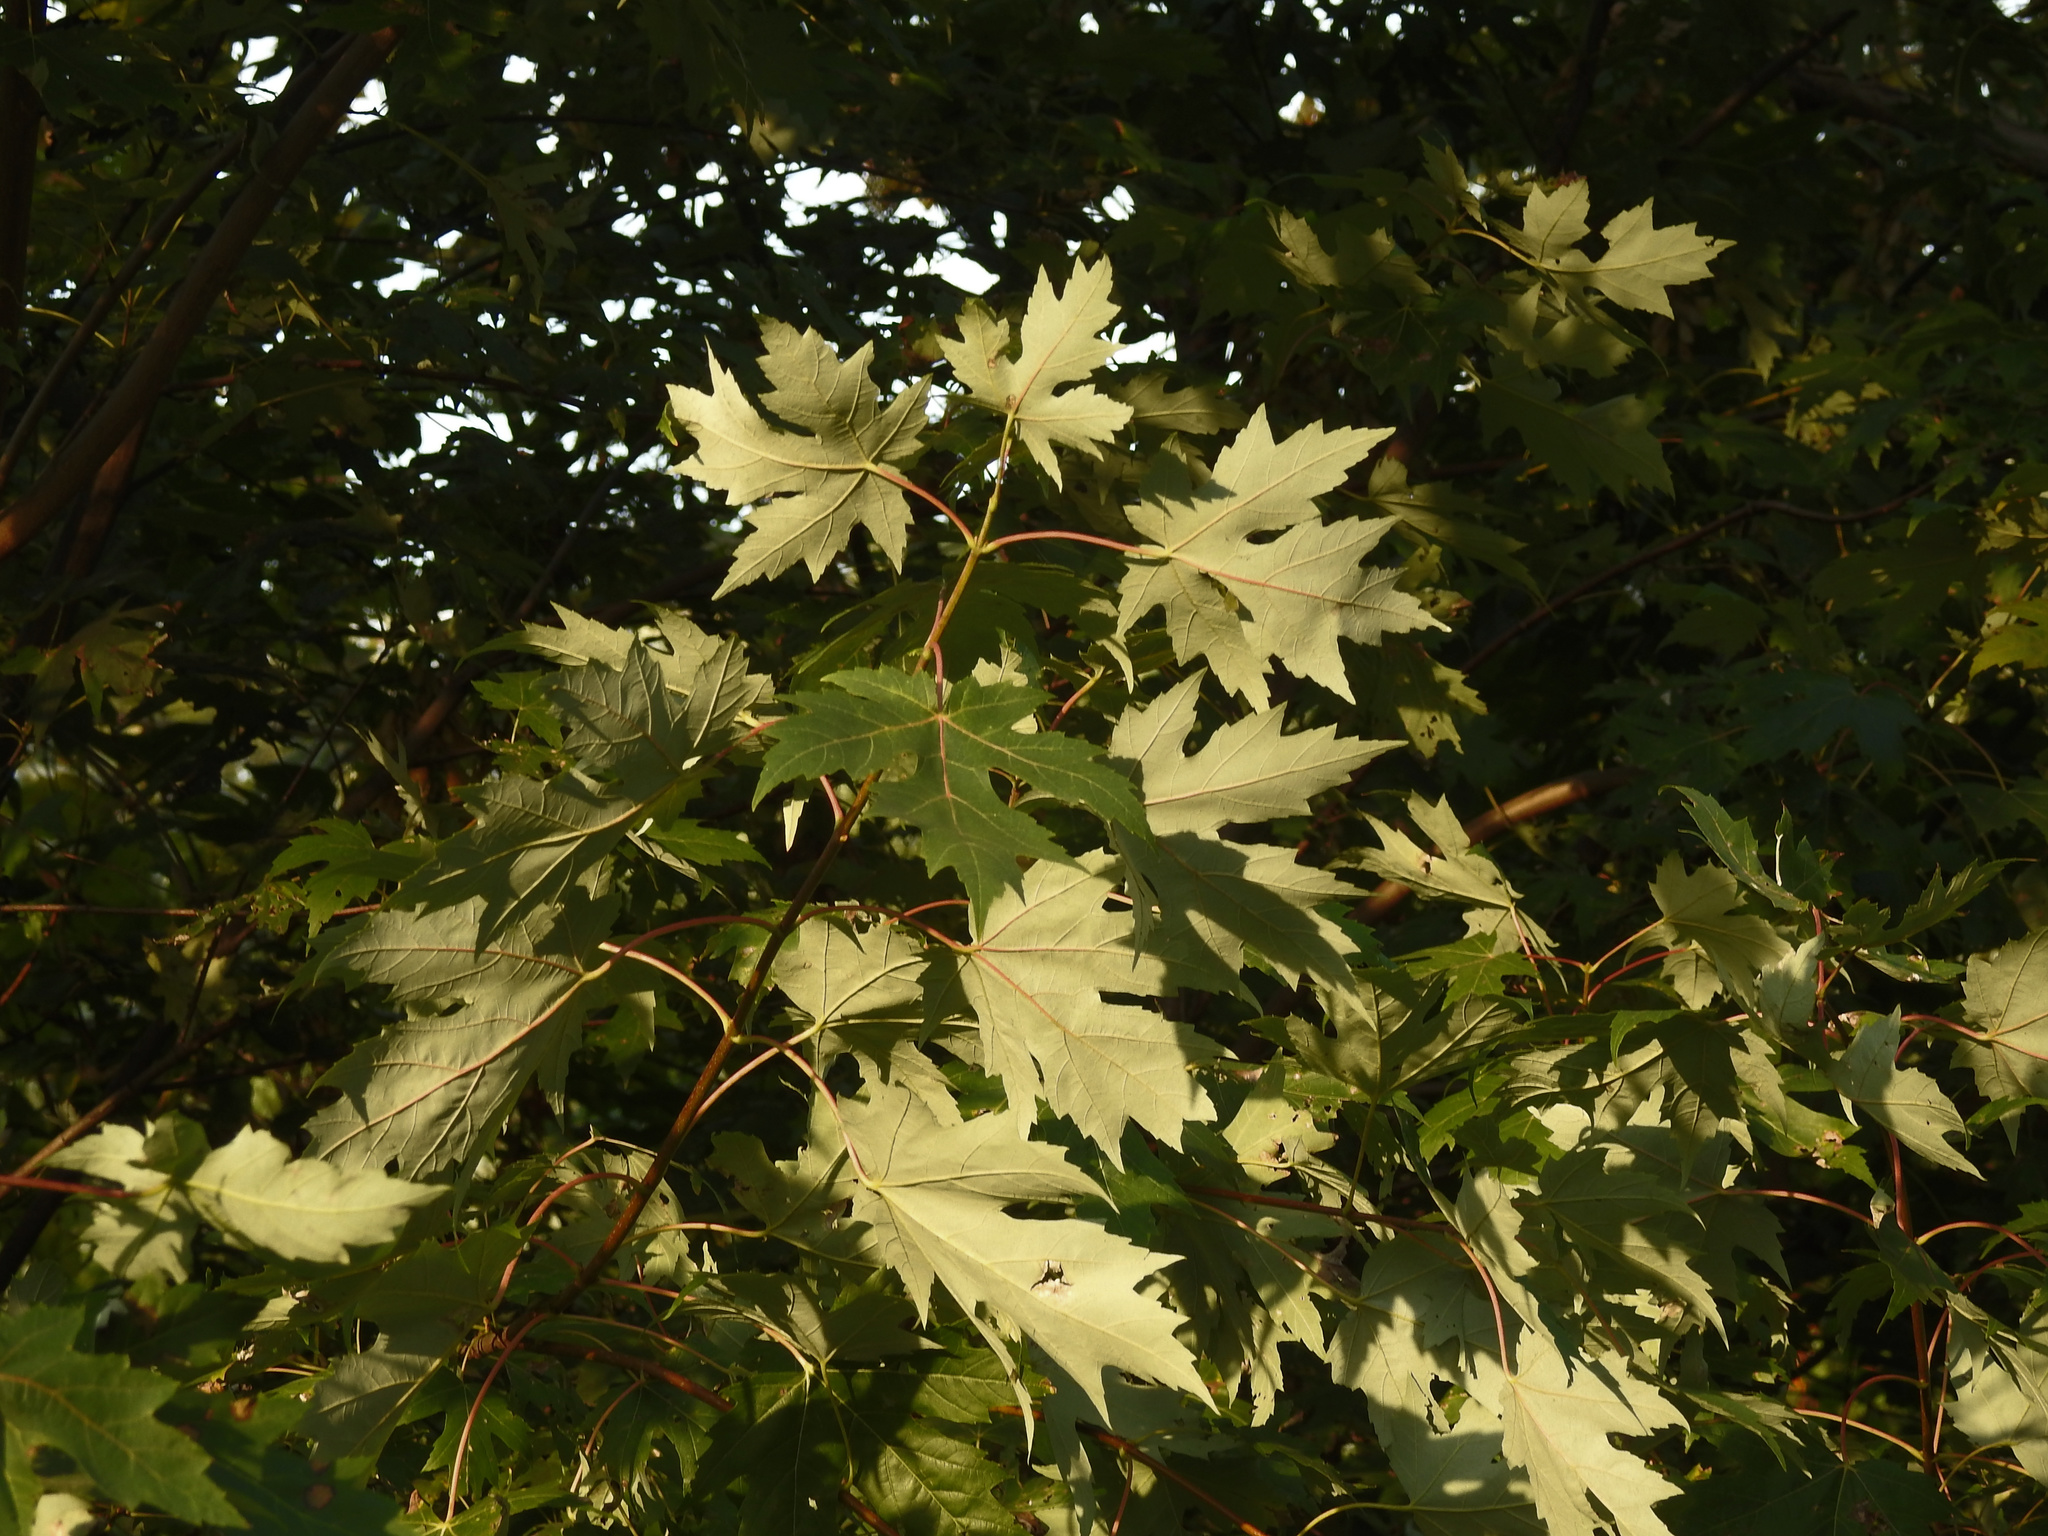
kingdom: Plantae
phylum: Tracheophyta
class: Magnoliopsida
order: Sapindales
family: Sapindaceae
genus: Acer
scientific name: Acer saccharinum
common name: Silver maple
